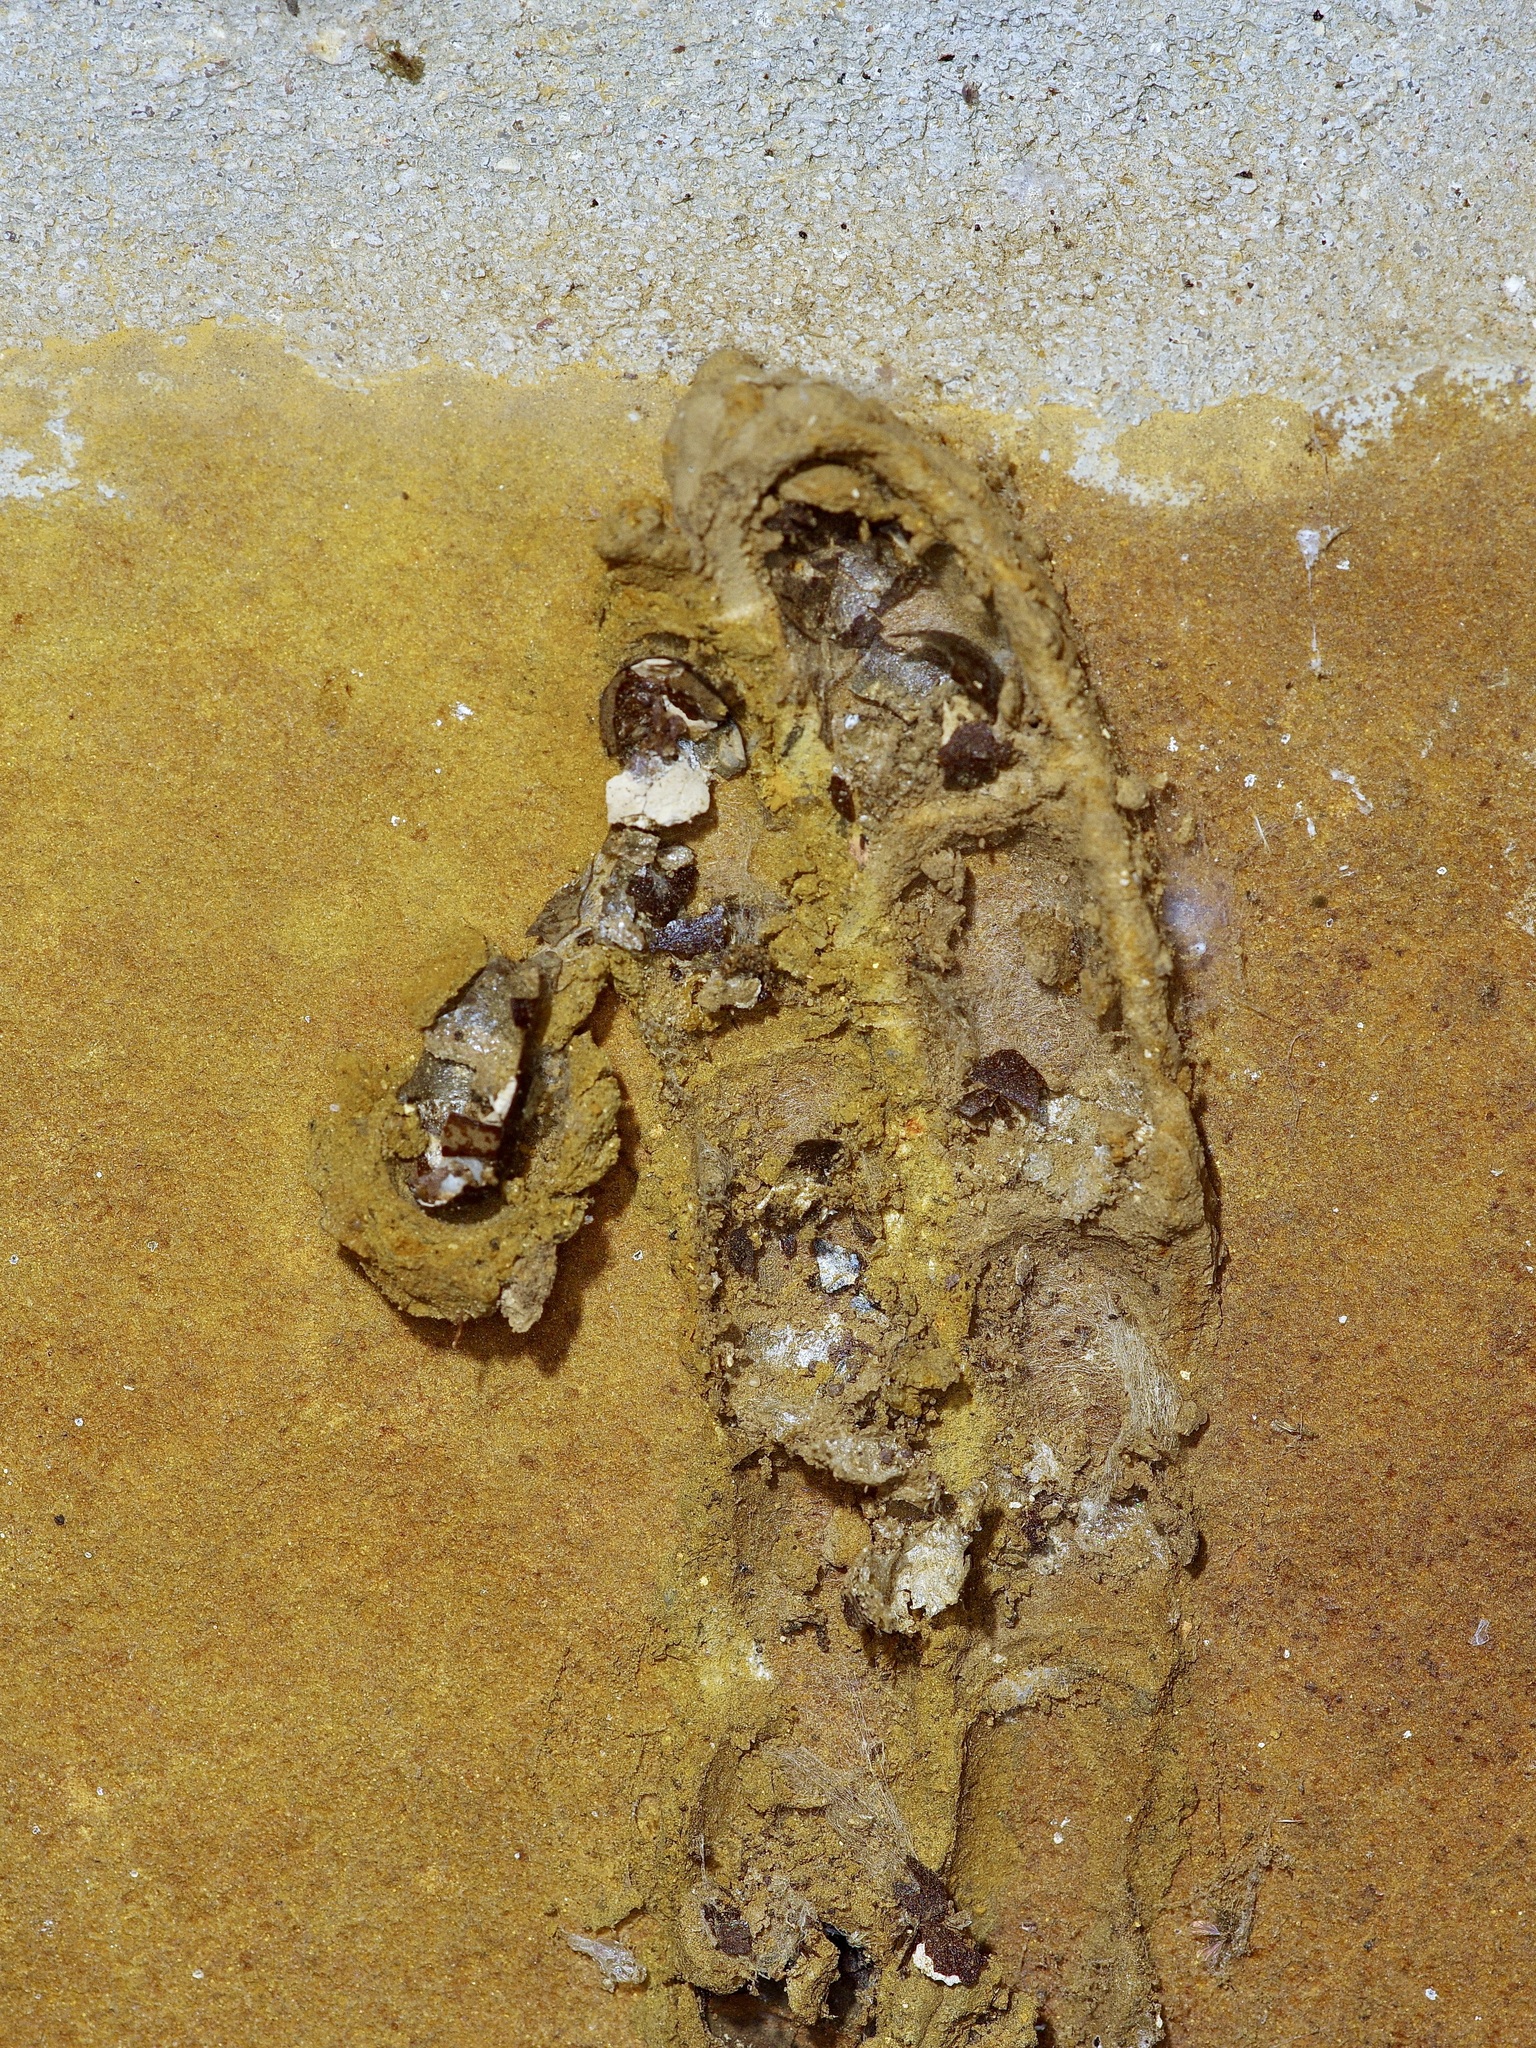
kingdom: Animalia
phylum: Arthropoda
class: Insecta
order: Hymenoptera
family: Crabronidae
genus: Trypoxylon
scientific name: Trypoxylon politum
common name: Organ-pipe mud-dauber wasp
